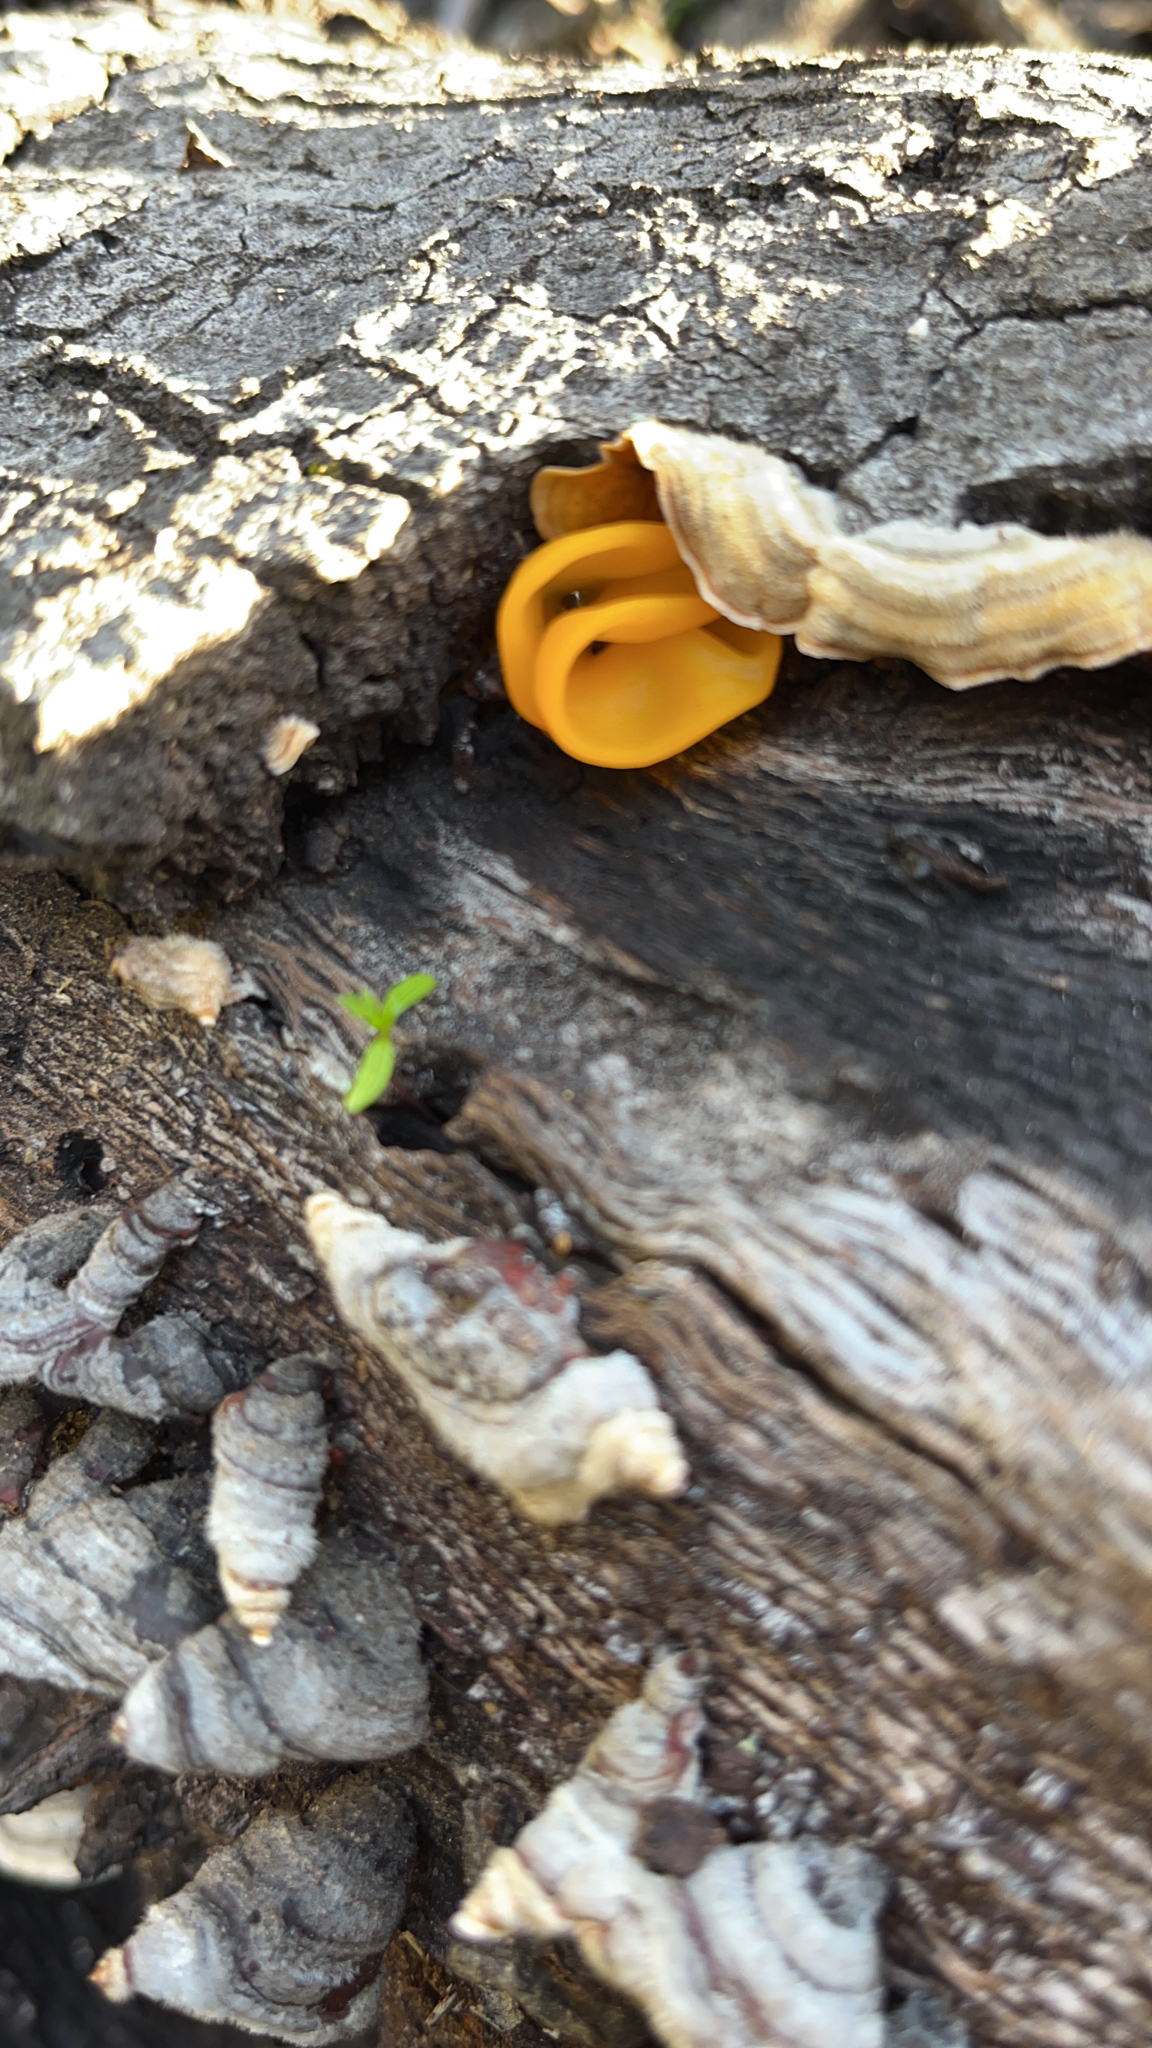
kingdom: Fungi
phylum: Basidiomycota
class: Tremellomycetes
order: Tremellales
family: Naemateliaceae
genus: Naematelia
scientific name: Naematelia aurantia
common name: Golden ear
